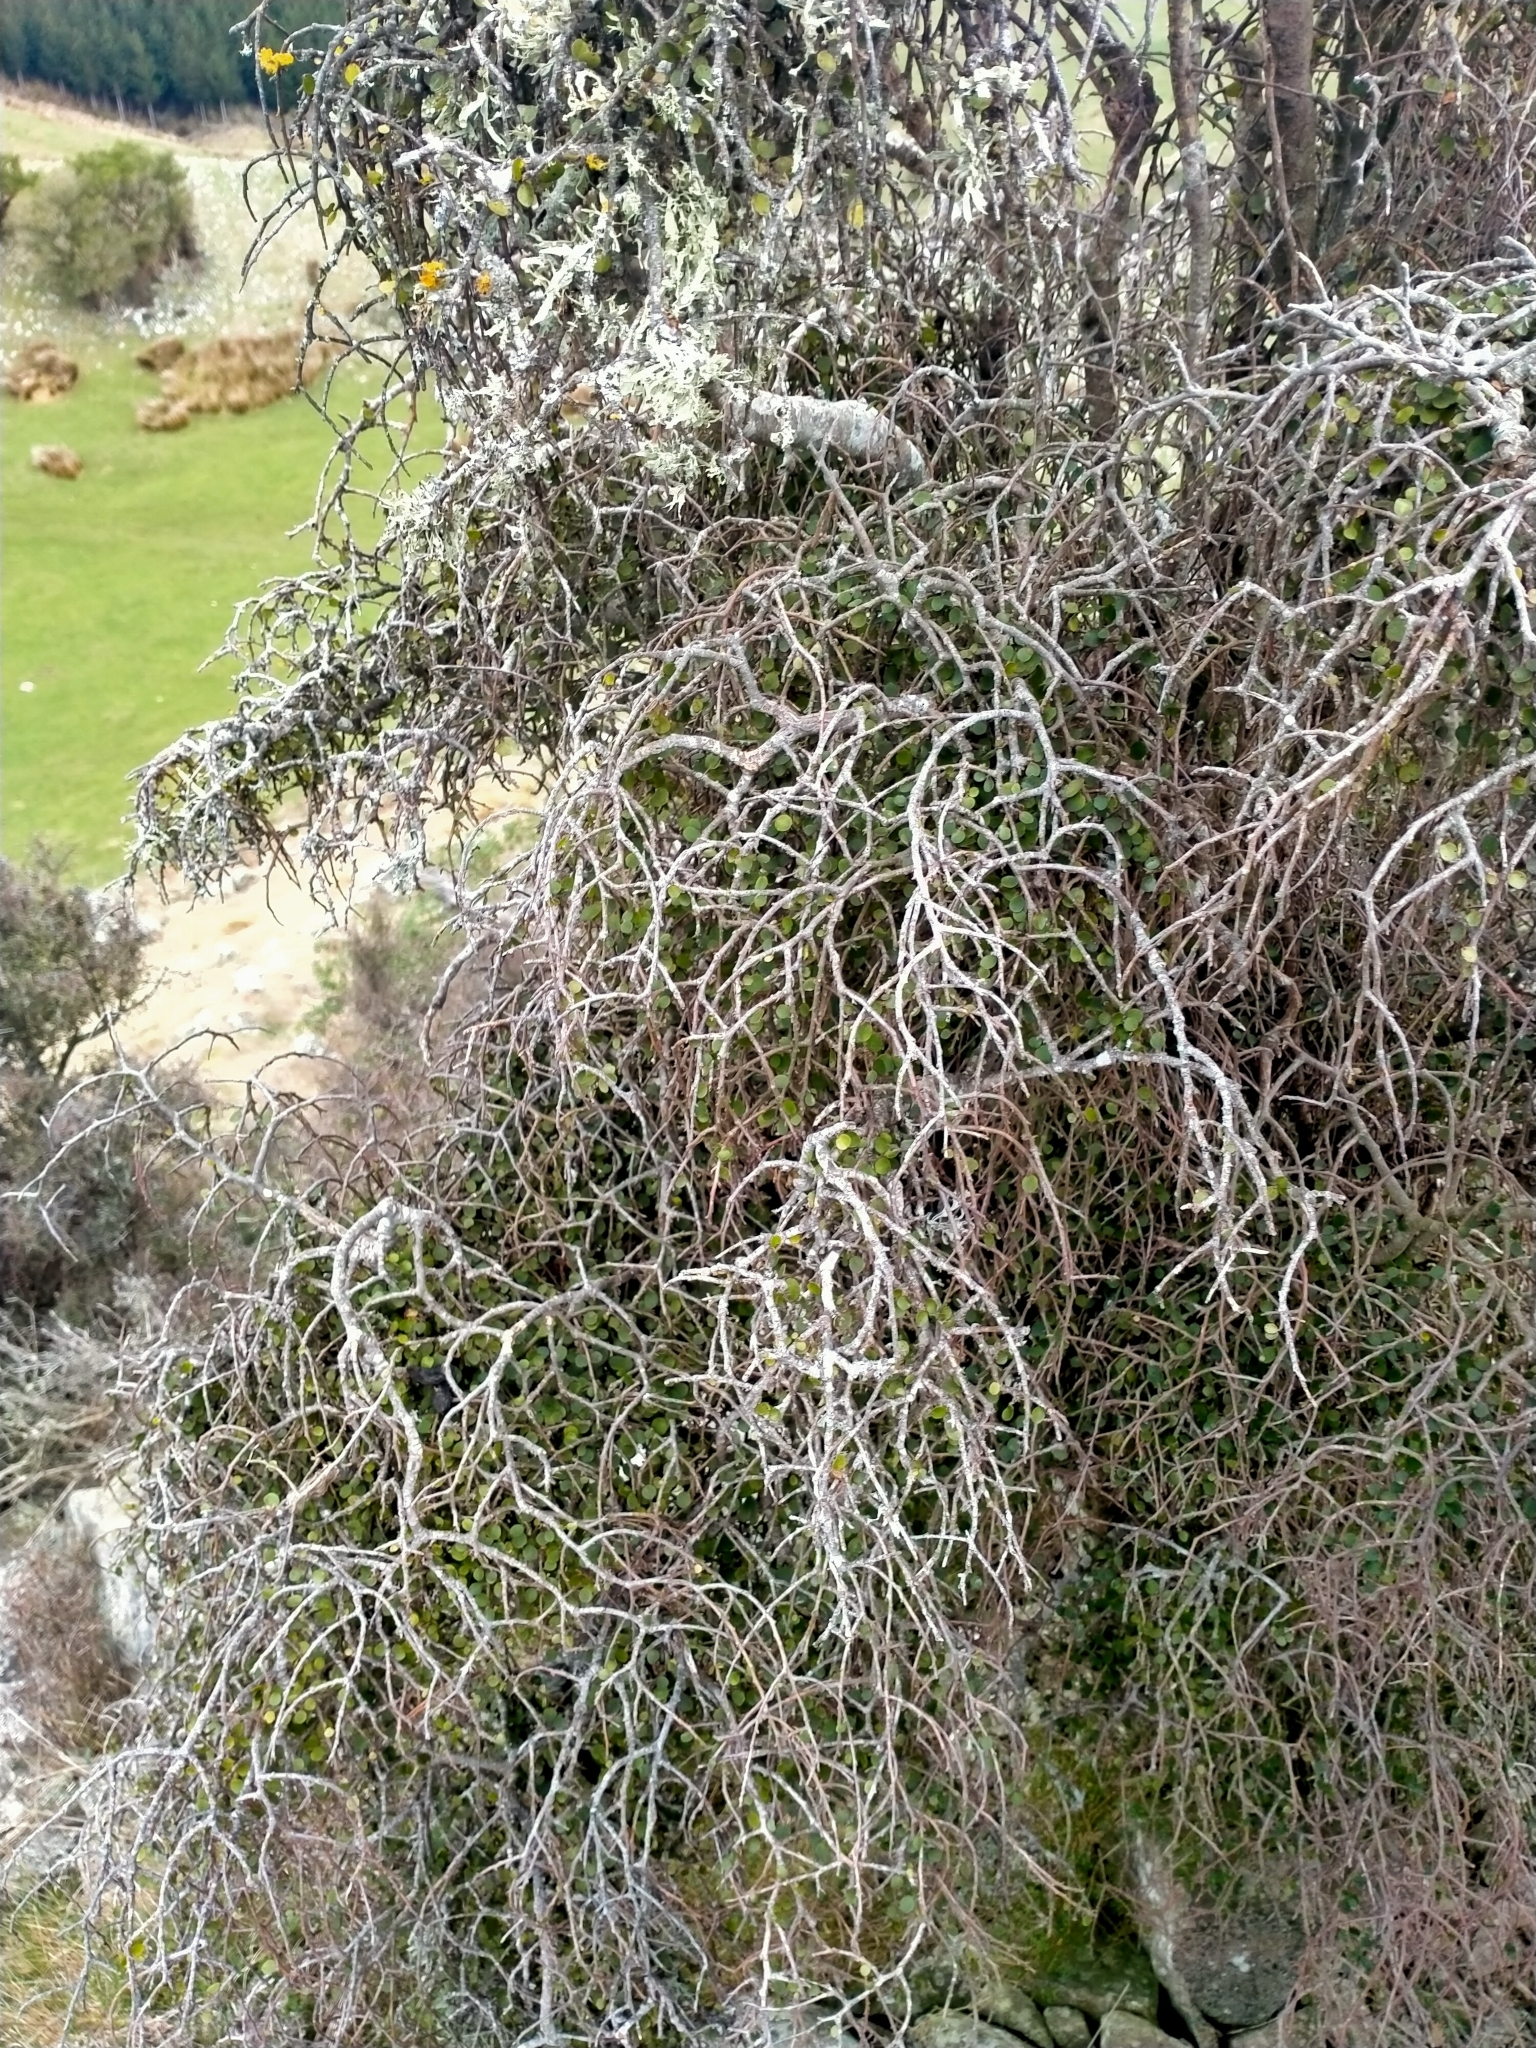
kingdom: Plantae
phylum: Tracheophyta
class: Magnoliopsida
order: Ericales
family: Primulaceae
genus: Myrsine
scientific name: Myrsine divaricata
